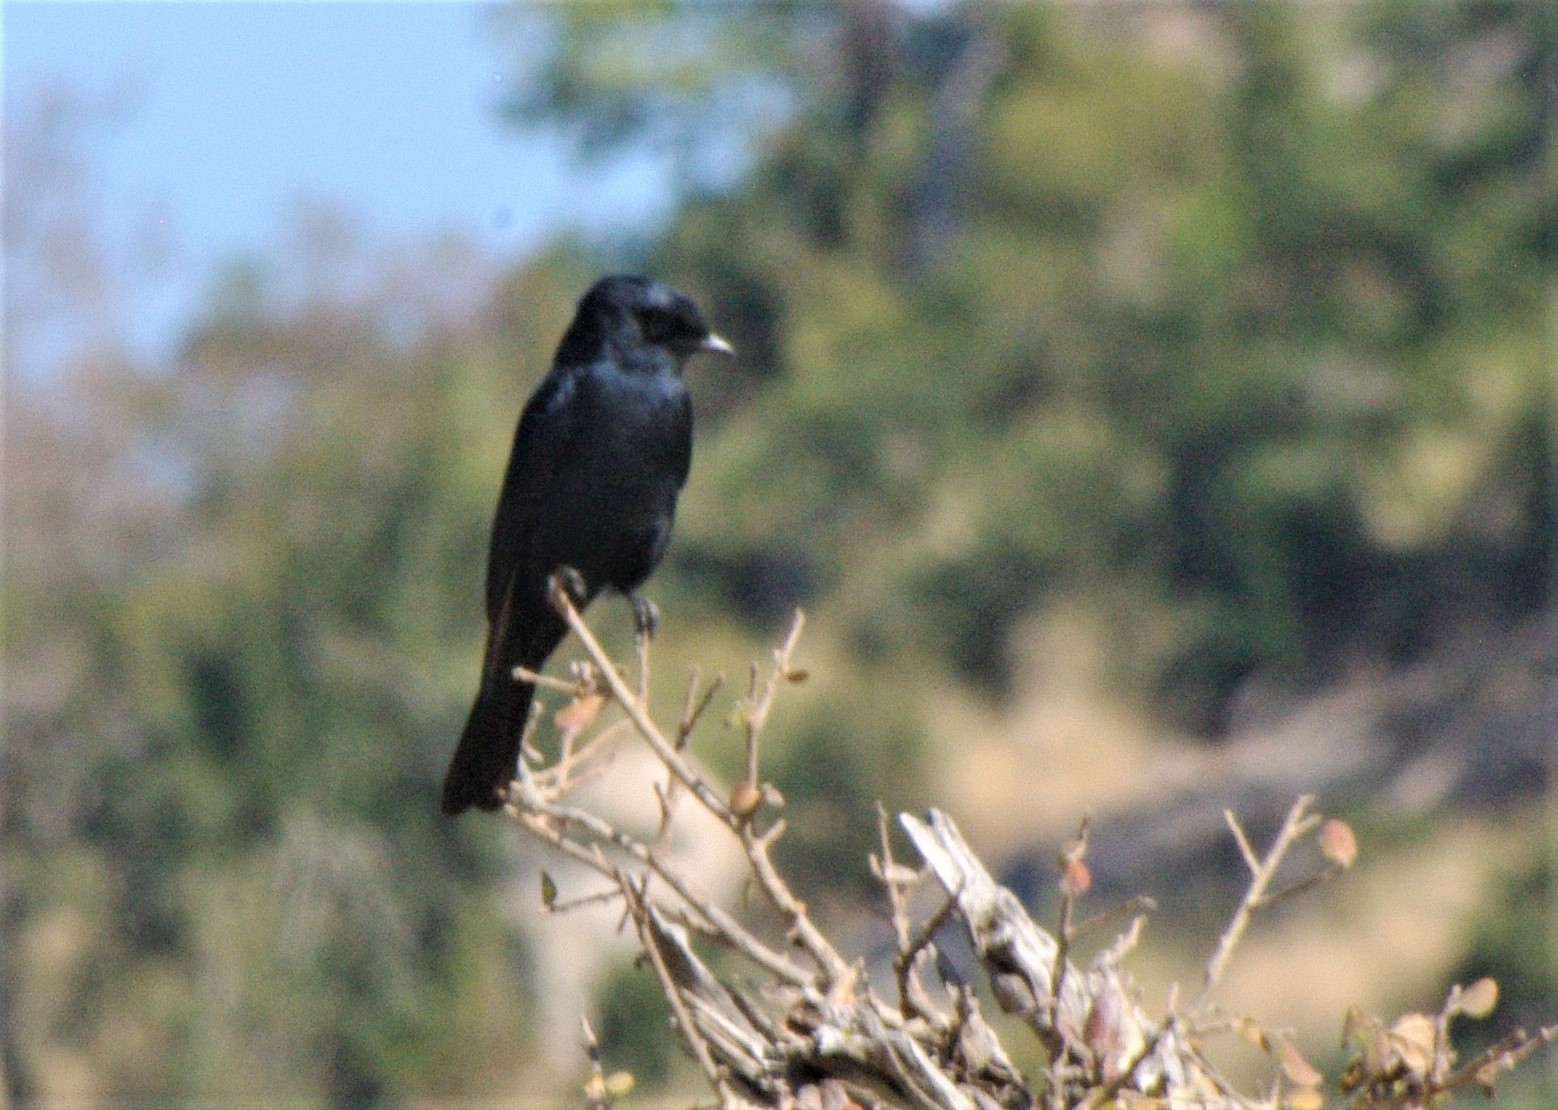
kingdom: Animalia
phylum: Chordata
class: Aves
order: Passeriformes
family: Muscicapidae
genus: Melaenornis
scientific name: Melaenornis pammelaina
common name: Southern black flycatcher
